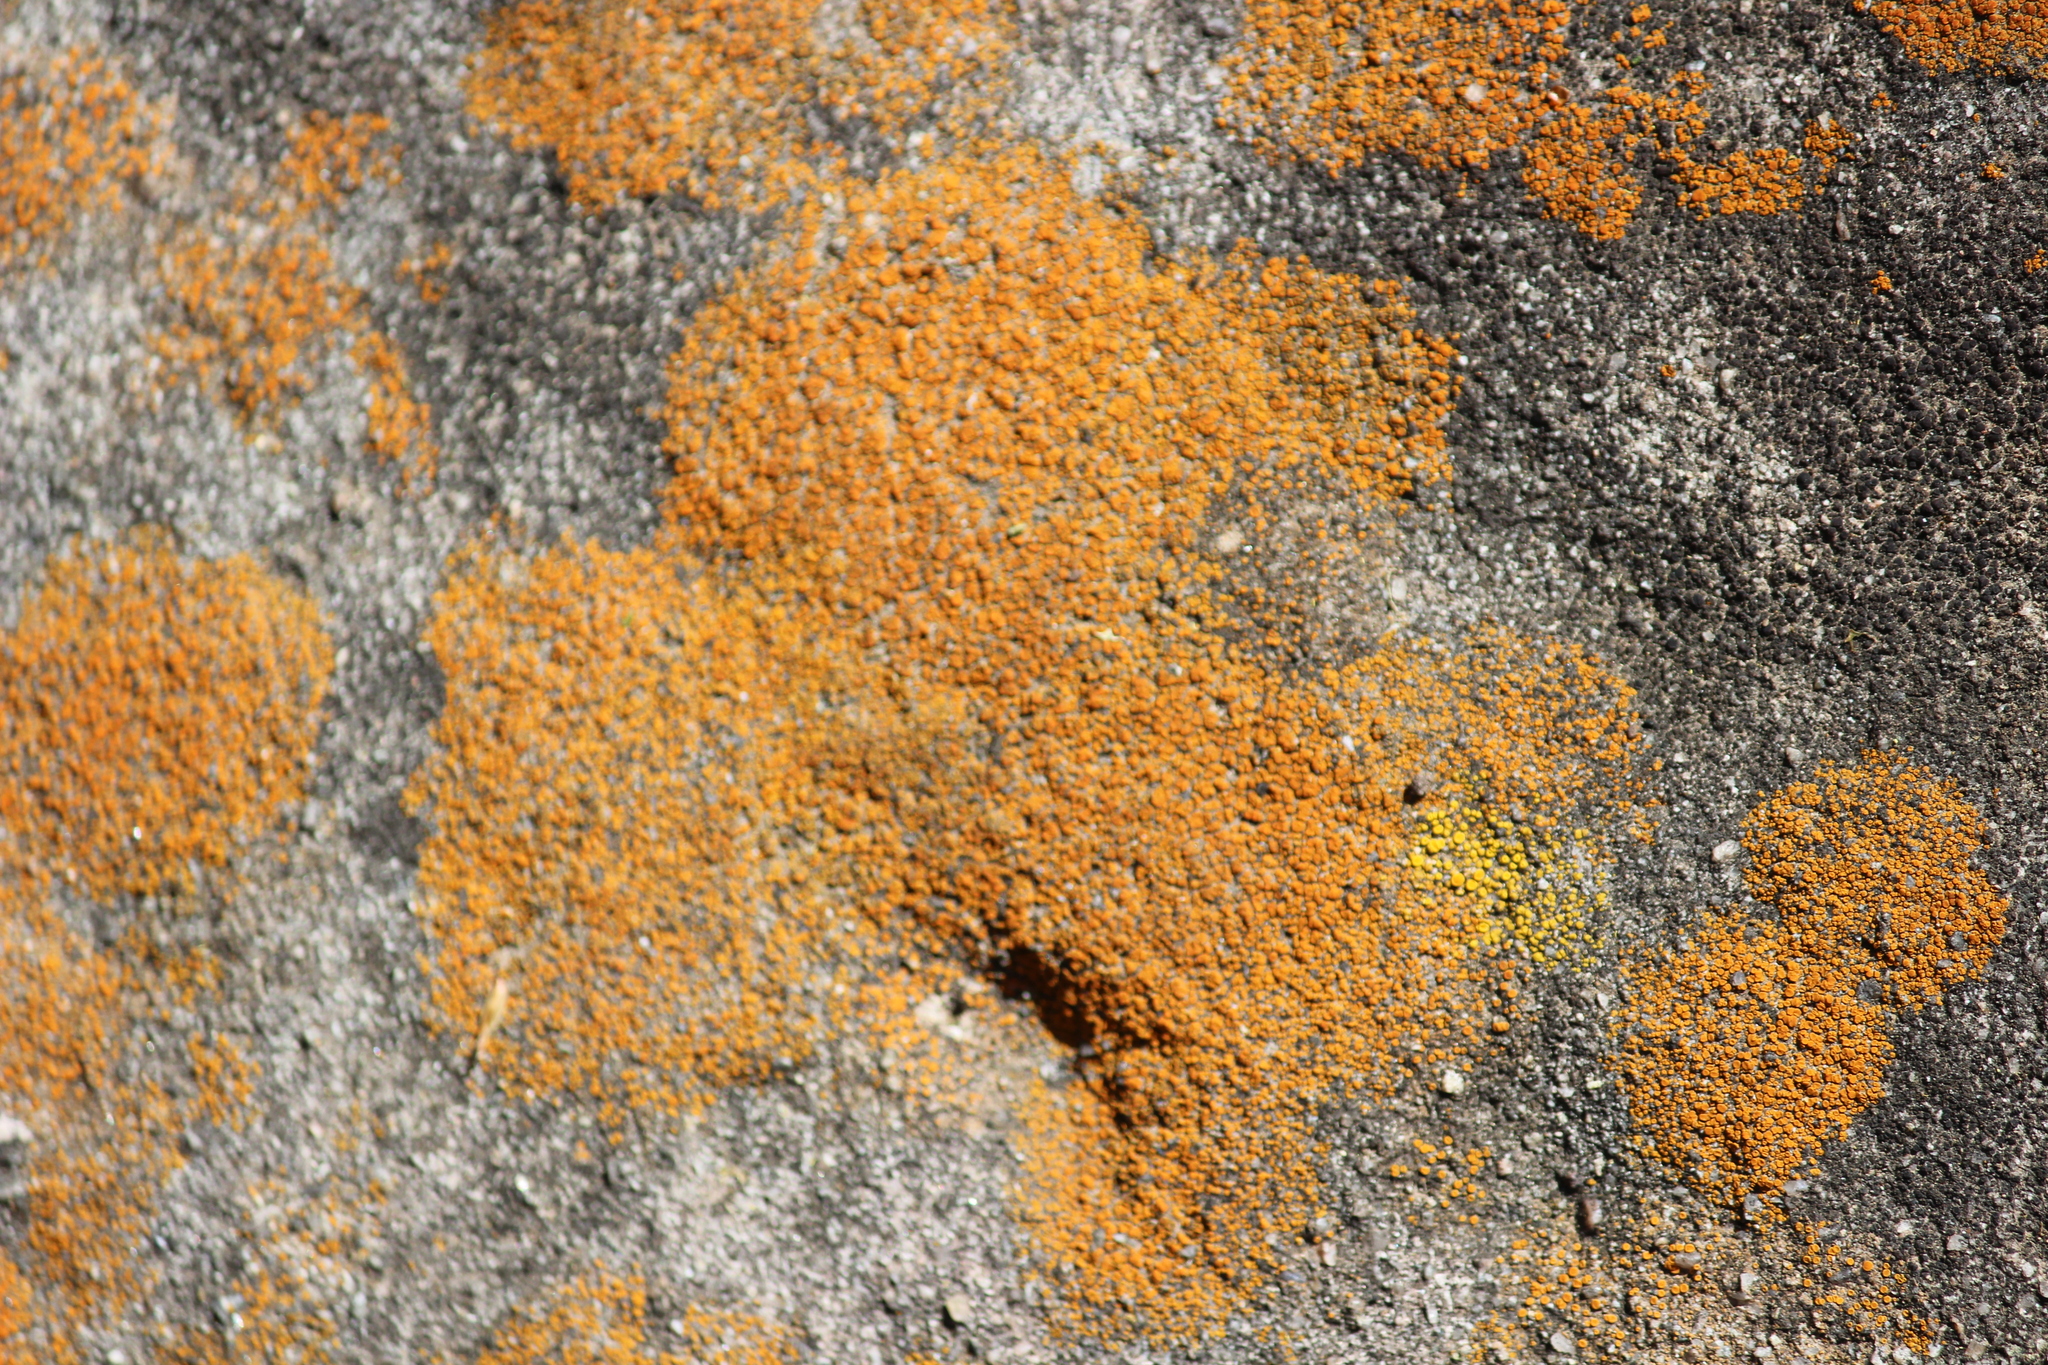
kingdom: Fungi
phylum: Ascomycota
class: Lecanoromycetes
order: Teloschistales
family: Teloschistaceae
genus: Tomnashia
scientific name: Tomnashia luteominia
